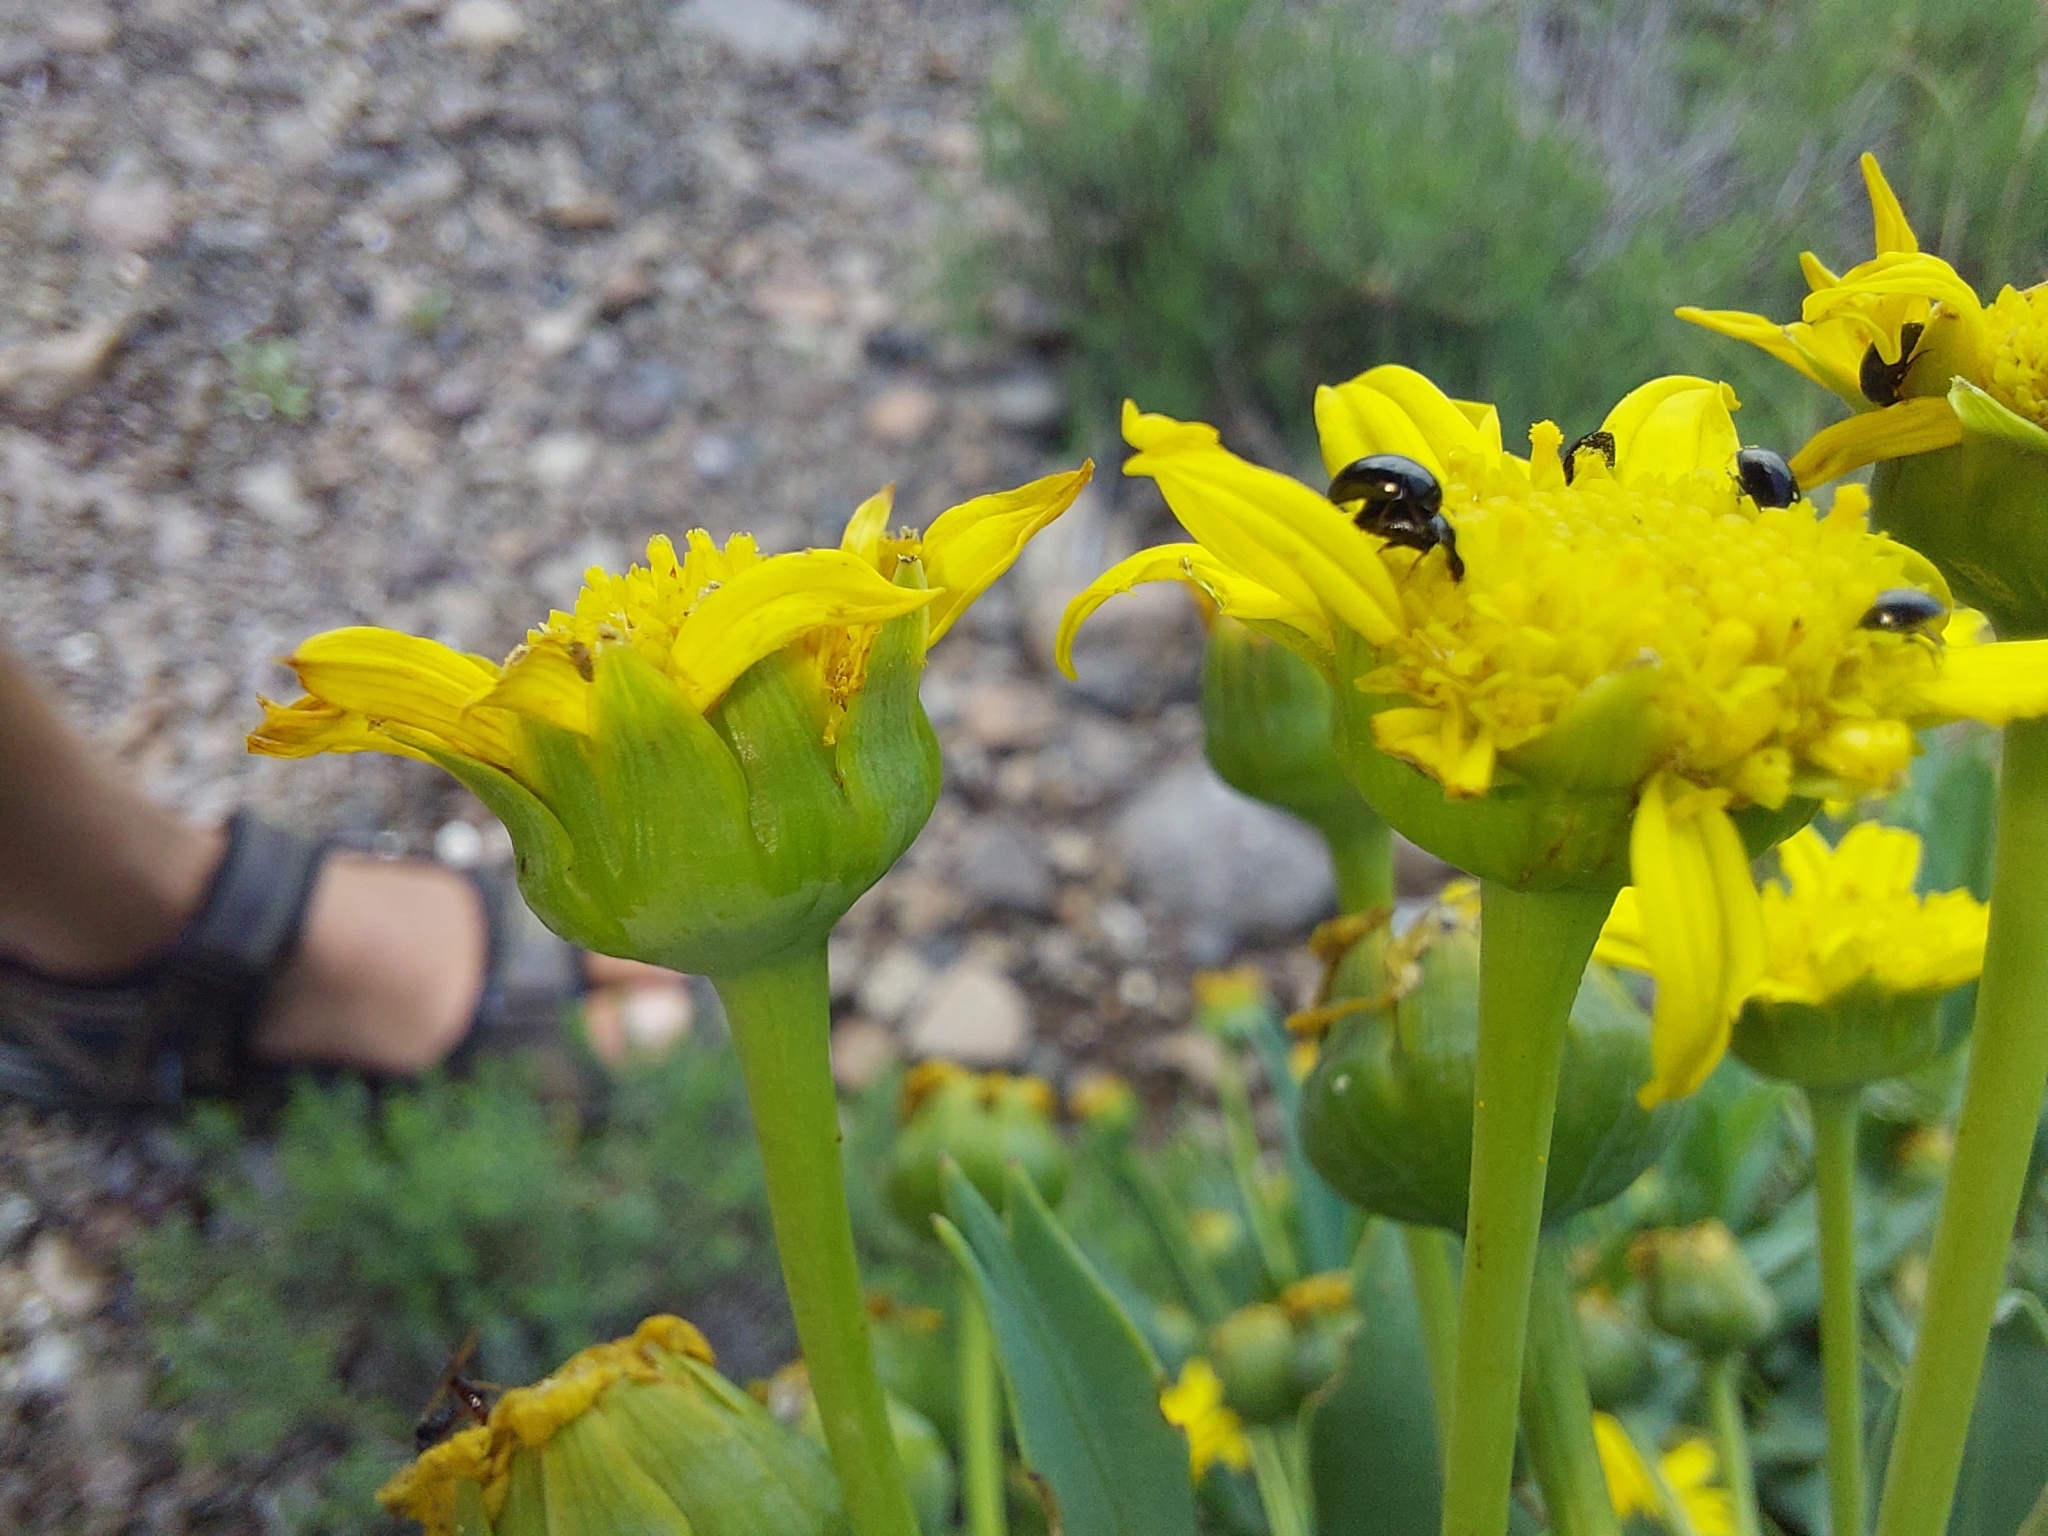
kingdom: Plantae
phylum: Tracheophyta
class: Magnoliopsida
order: Asterales
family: Asteraceae
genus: Euryops
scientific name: Euryops evansii
